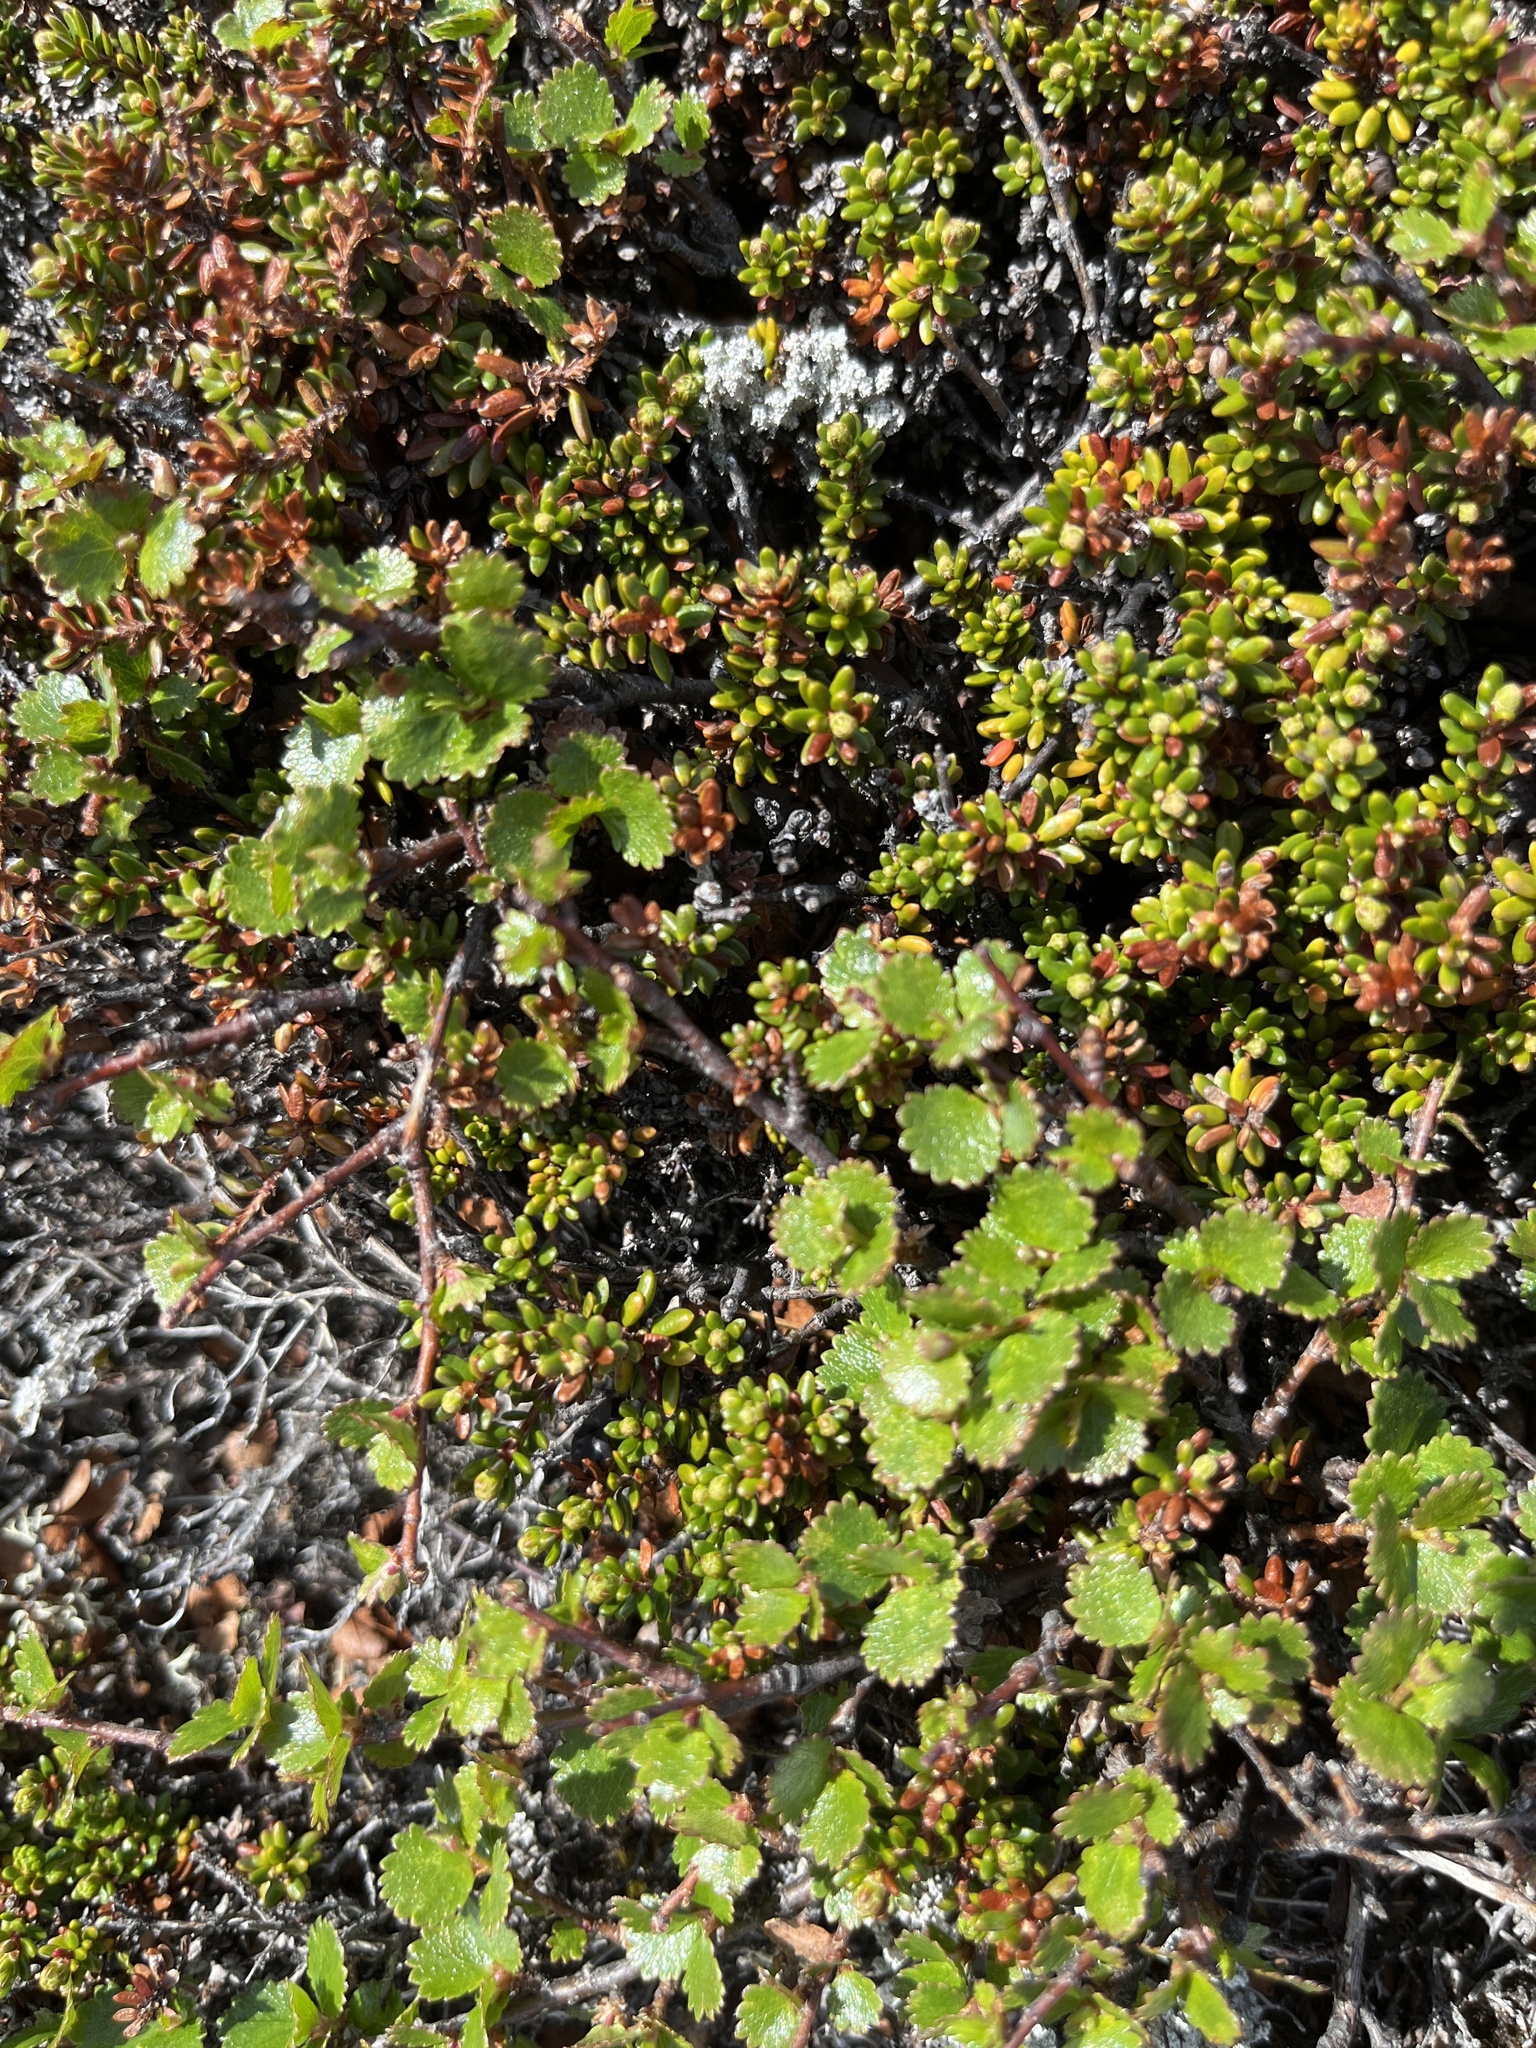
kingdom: Plantae
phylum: Tracheophyta
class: Magnoliopsida
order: Fagales
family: Betulaceae
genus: Betula
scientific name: Betula nana
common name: Arctic dwarf birch
